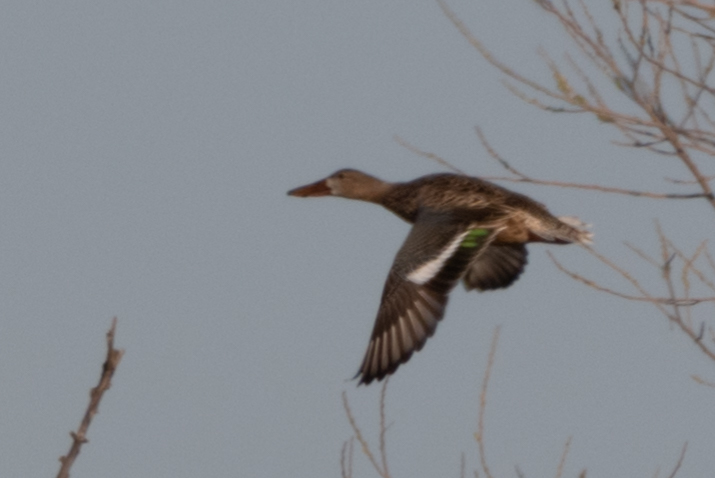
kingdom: Animalia
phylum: Chordata
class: Aves
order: Anseriformes
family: Anatidae
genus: Spatula
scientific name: Spatula clypeata
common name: Northern shoveler
